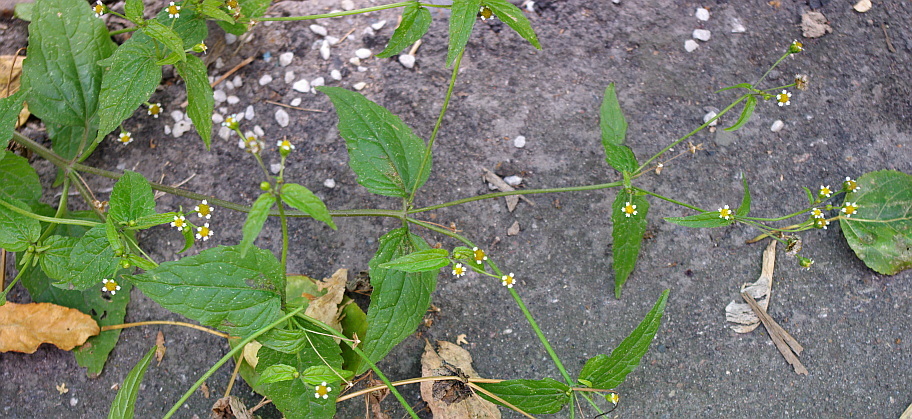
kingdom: Plantae
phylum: Tracheophyta
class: Magnoliopsida
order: Asterales
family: Asteraceae
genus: Galinsoga
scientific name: Galinsoga quadriradiata
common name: Shaggy soldier
